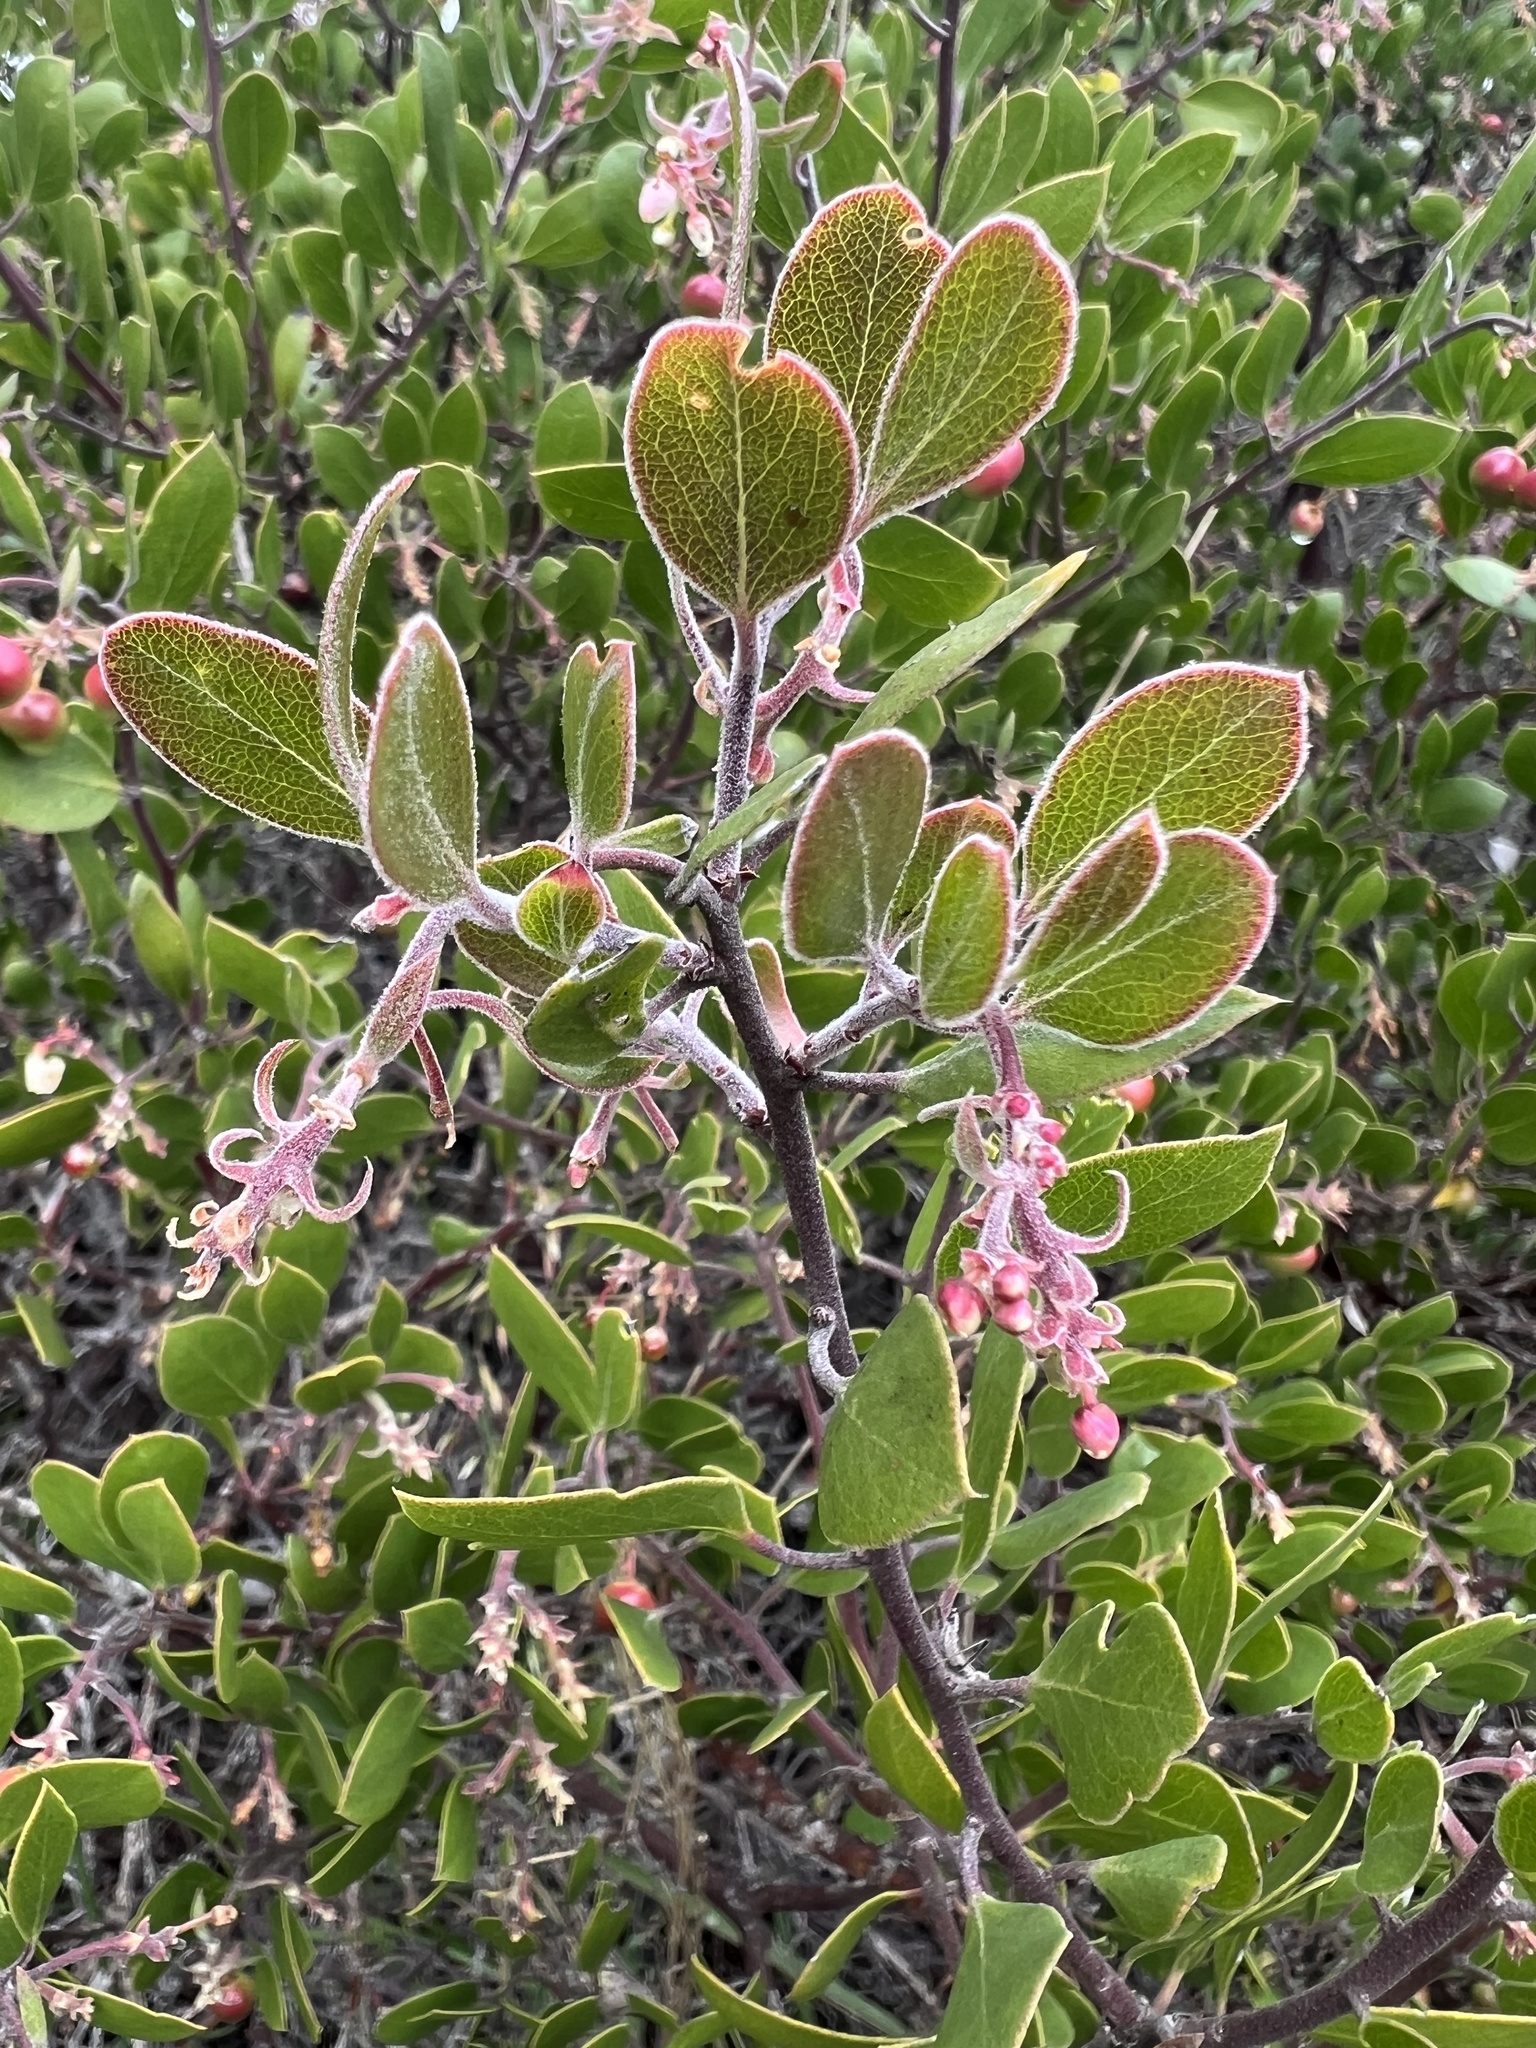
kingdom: Plantae
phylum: Tracheophyta
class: Magnoliopsida
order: Ericales
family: Ericaceae
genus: Arctostaphylos
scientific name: Arctostaphylos rudis
